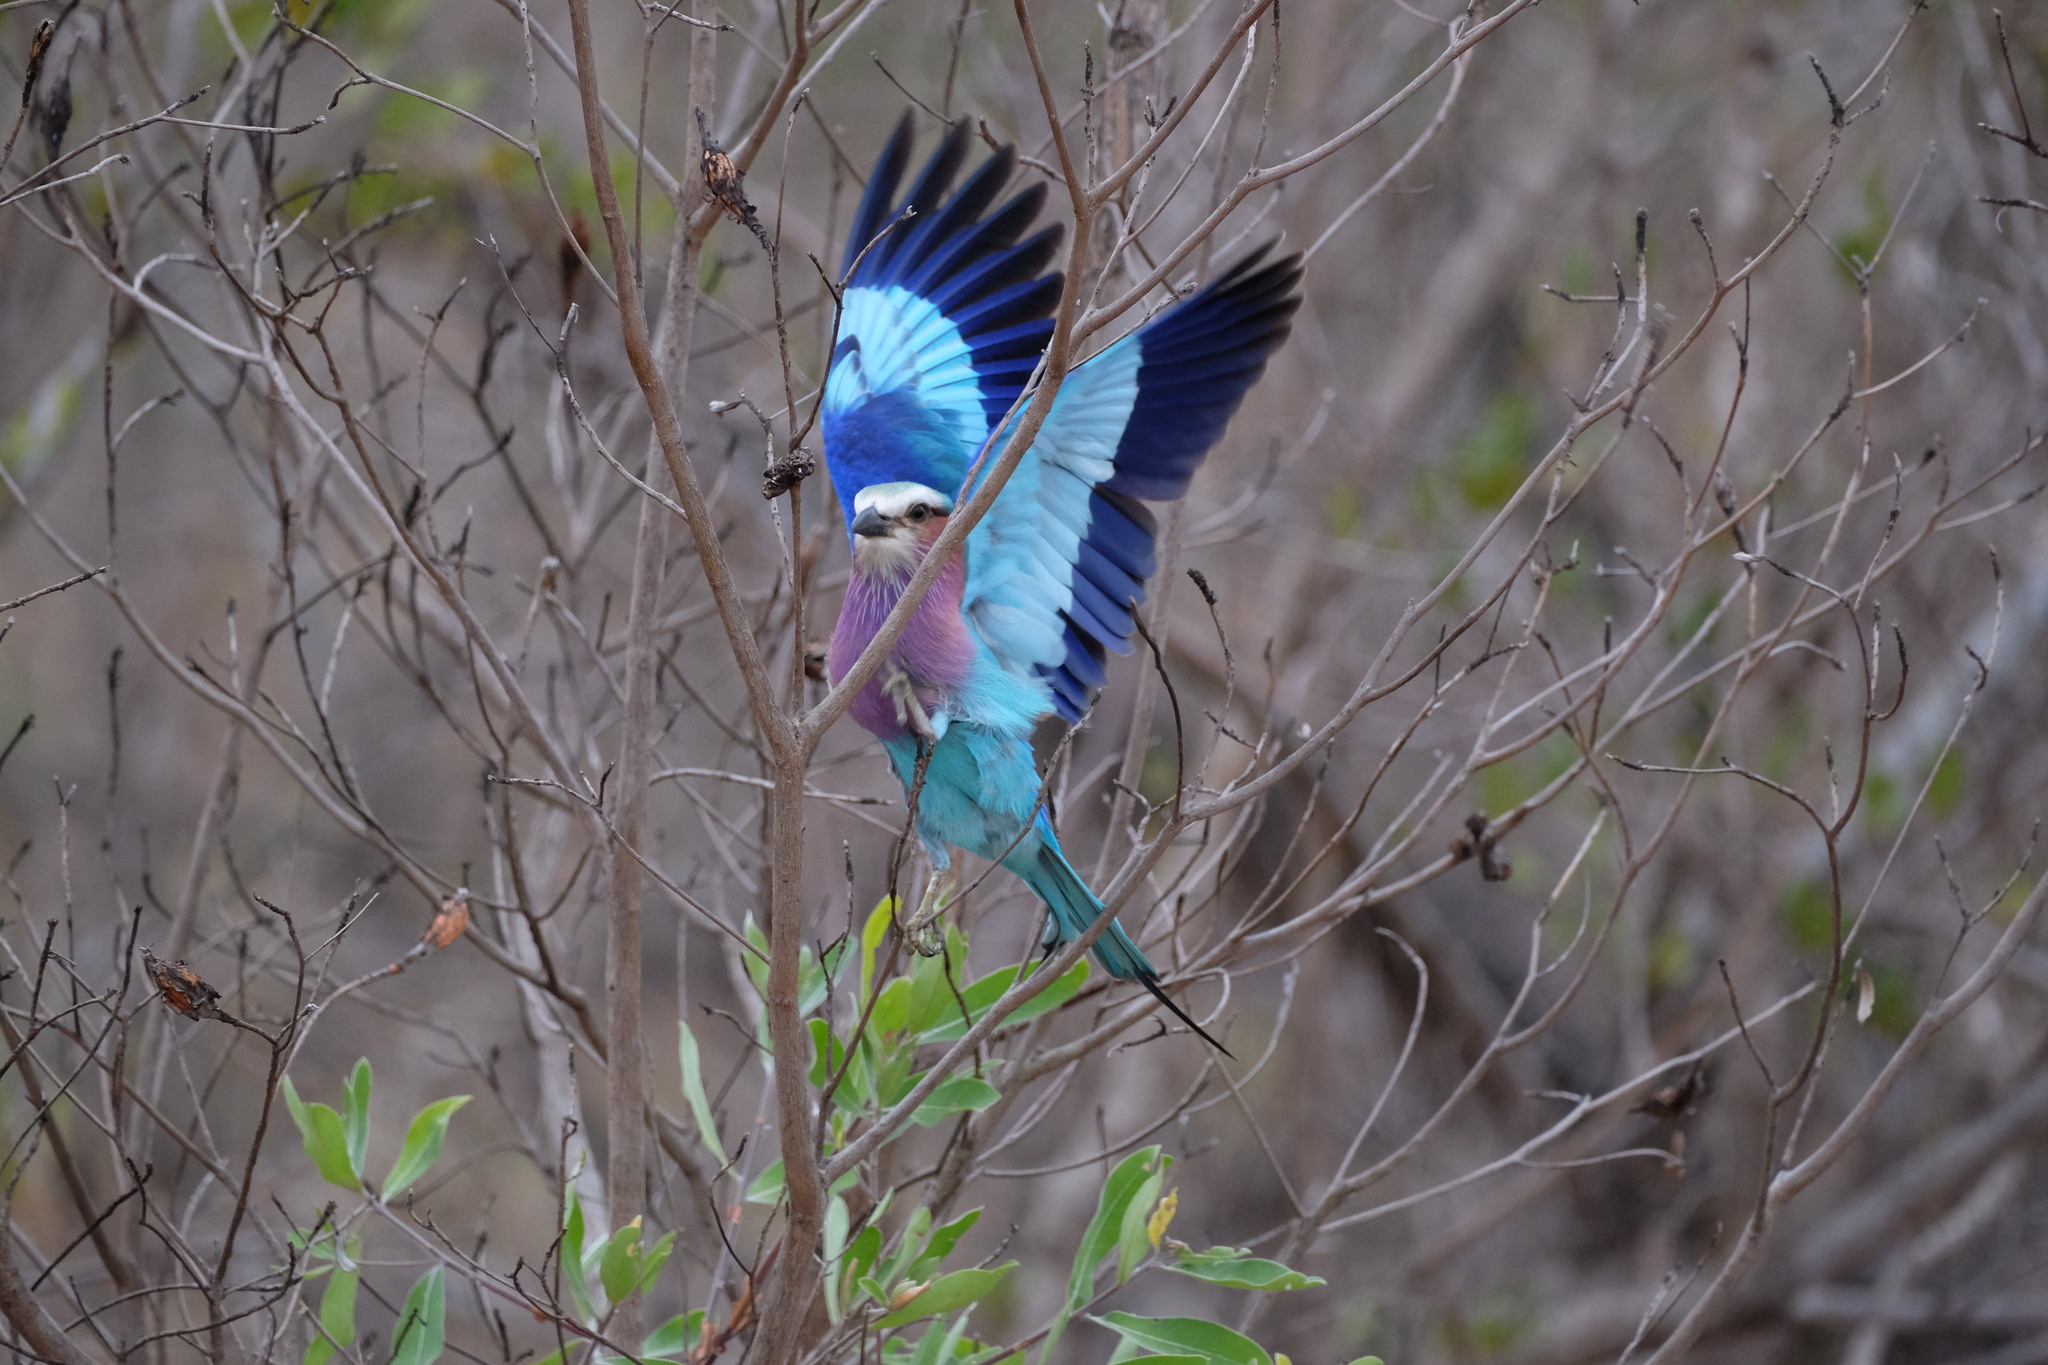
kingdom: Animalia
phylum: Chordata
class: Aves
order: Coraciiformes
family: Coraciidae
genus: Coracias
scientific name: Coracias caudatus
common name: Lilac-breasted roller
